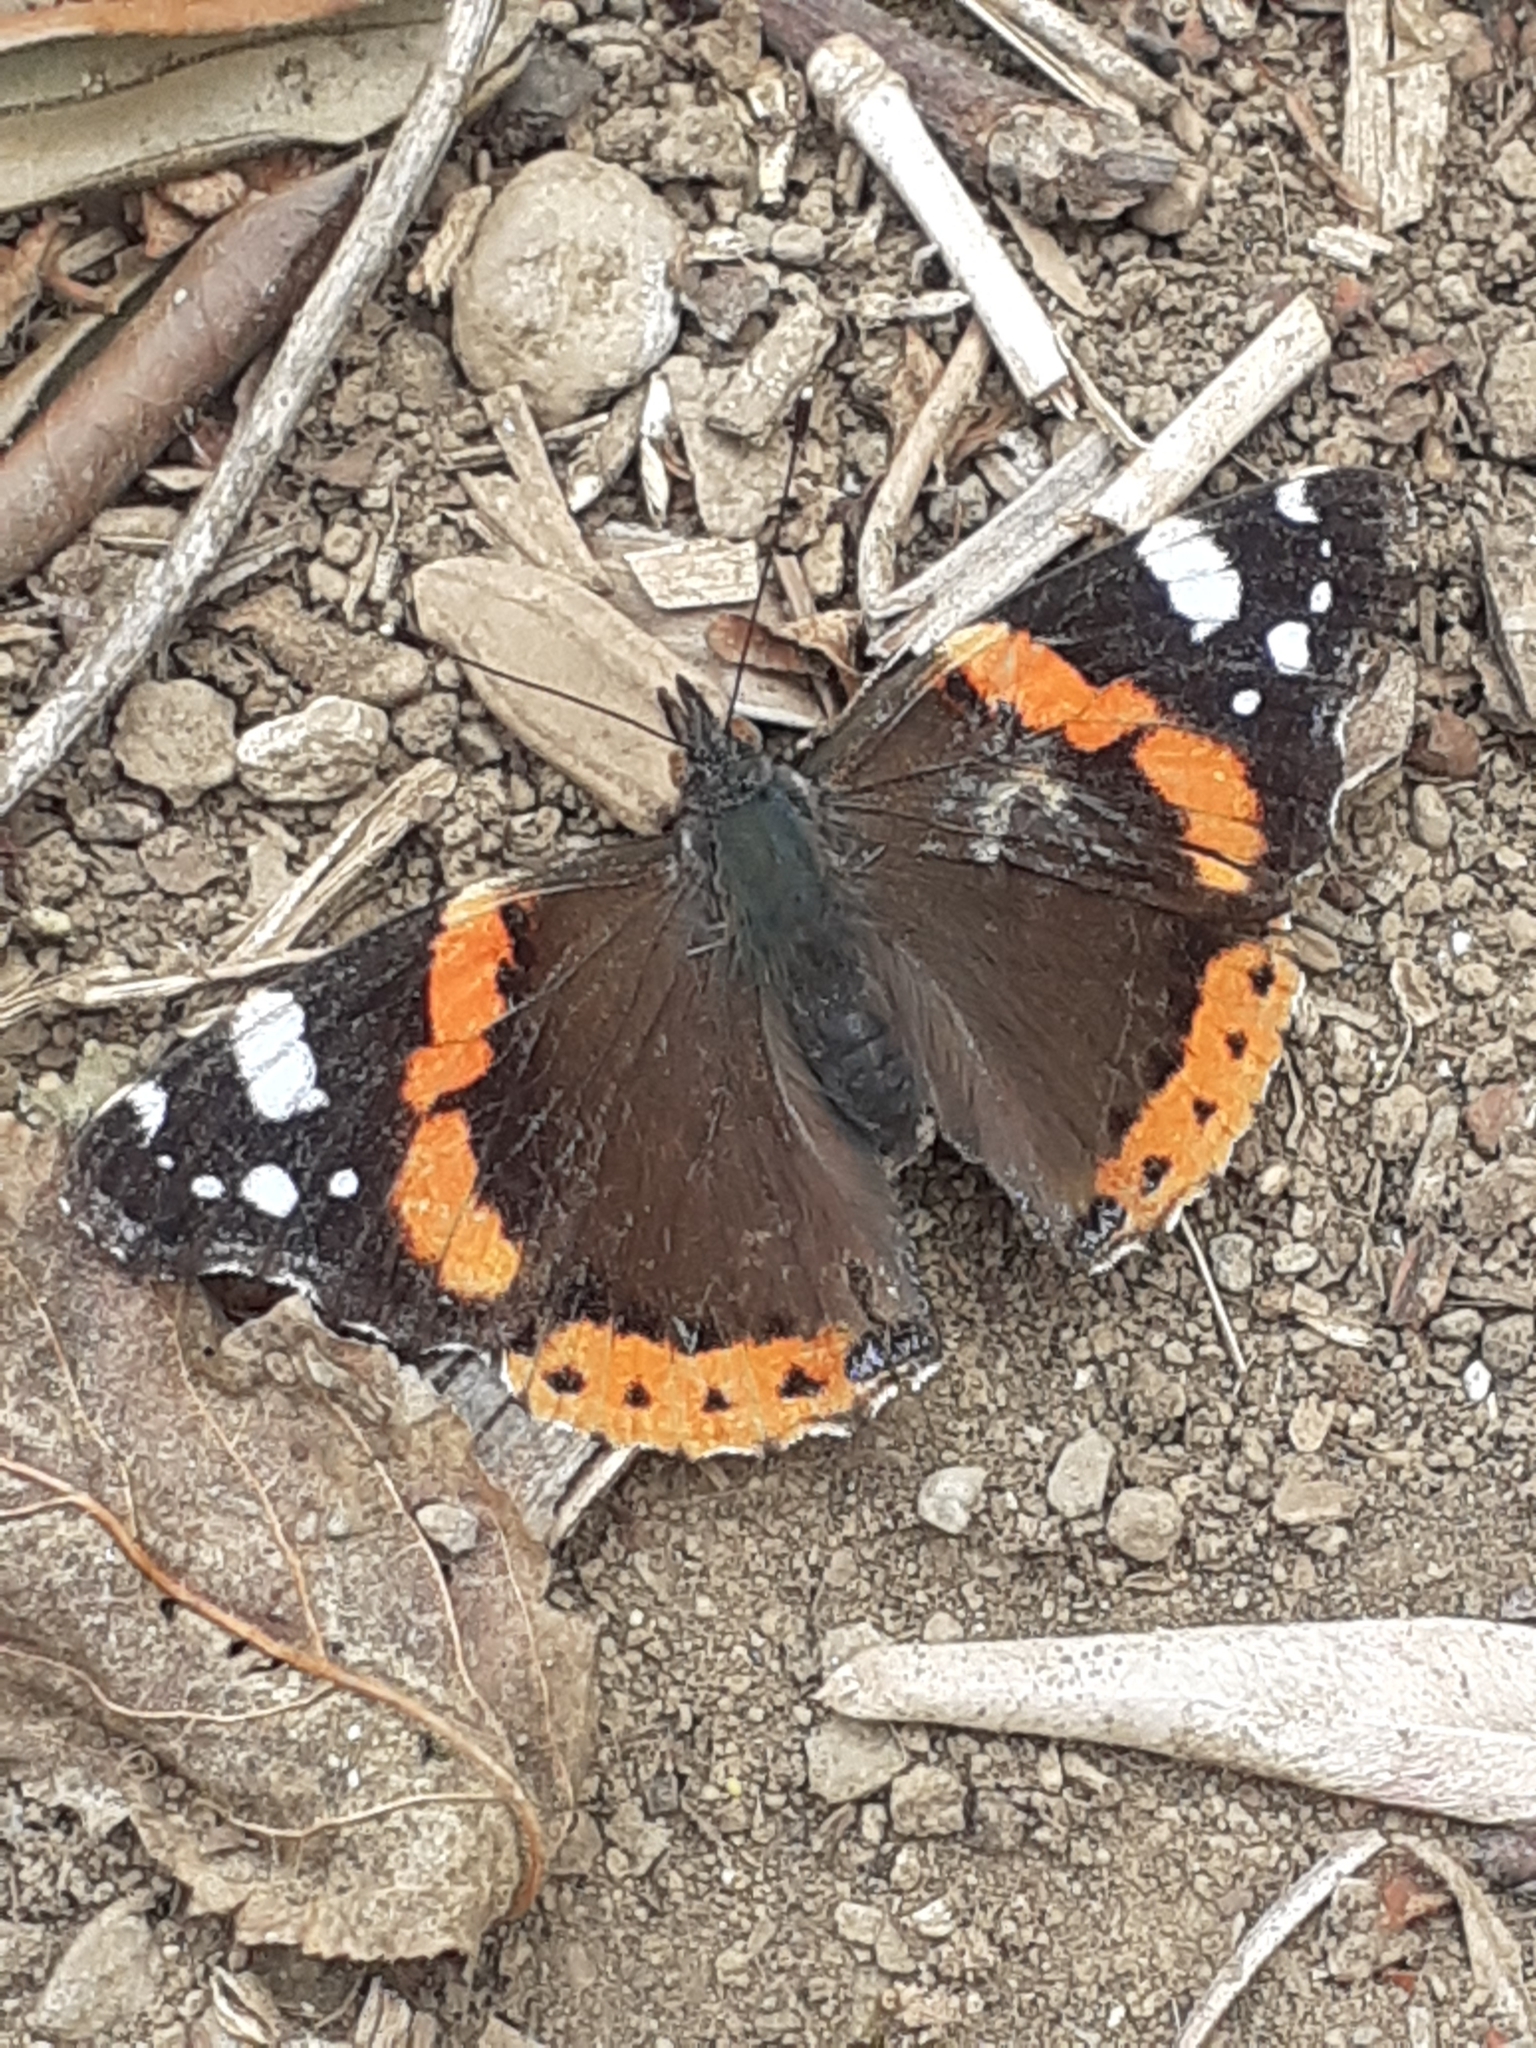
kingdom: Animalia
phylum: Arthropoda
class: Insecta
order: Lepidoptera
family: Nymphalidae
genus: Vanessa
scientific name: Vanessa atalanta
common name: Red admiral
